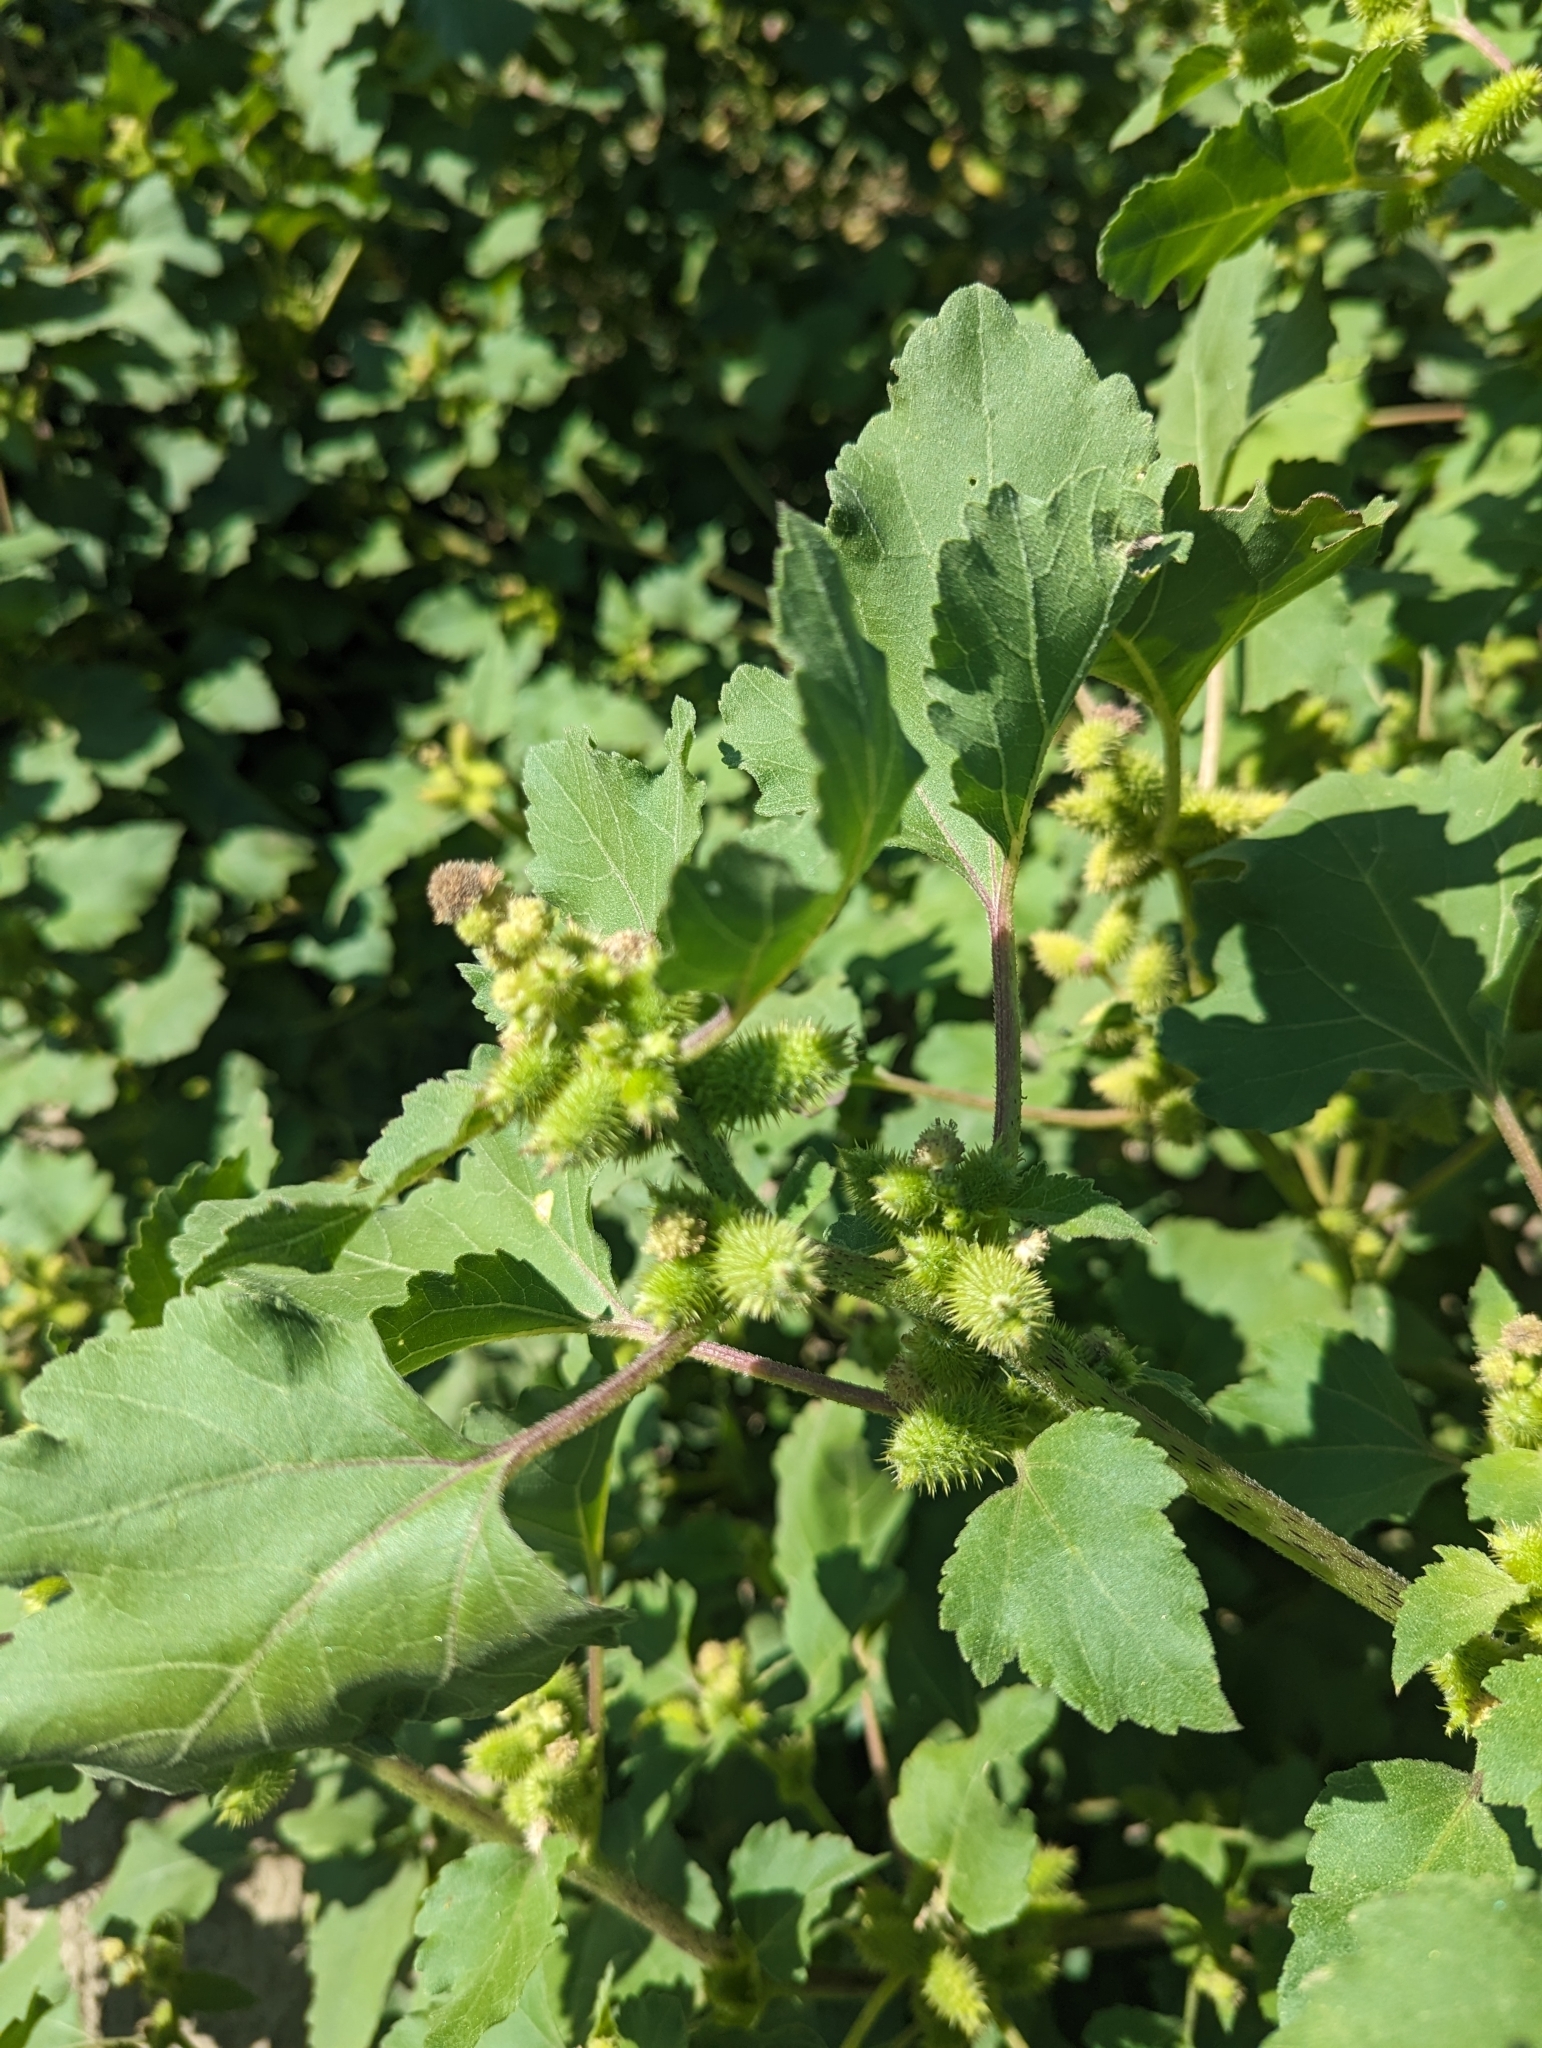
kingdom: Plantae
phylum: Tracheophyta
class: Magnoliopsida
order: Asterales
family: Asteraceae
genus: Xanthium
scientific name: Xanthium strumarium
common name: Rough cocklebur
